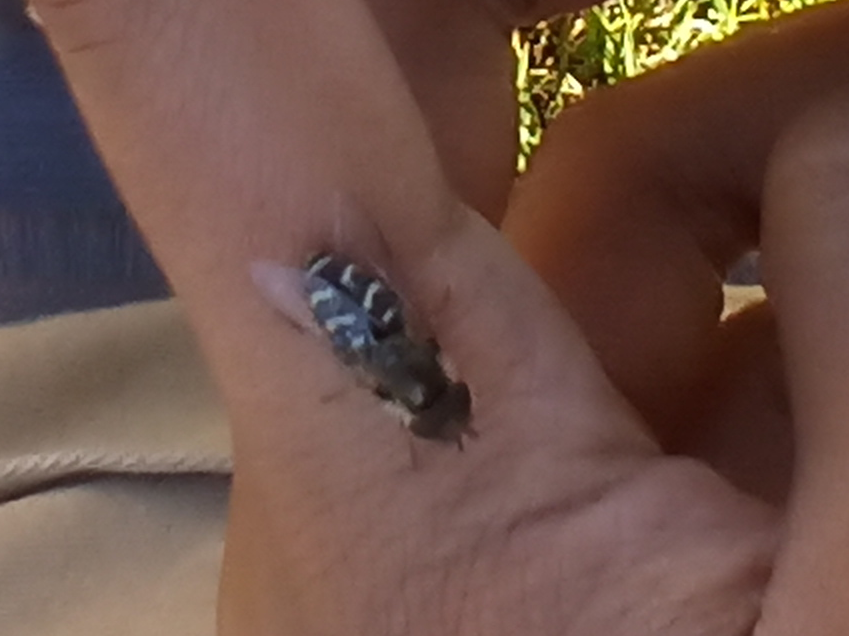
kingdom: Animalia
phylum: Arthropoda
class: Insecta
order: Diptera
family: Syrphidae
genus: Scaeva
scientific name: Scaeva affinis
